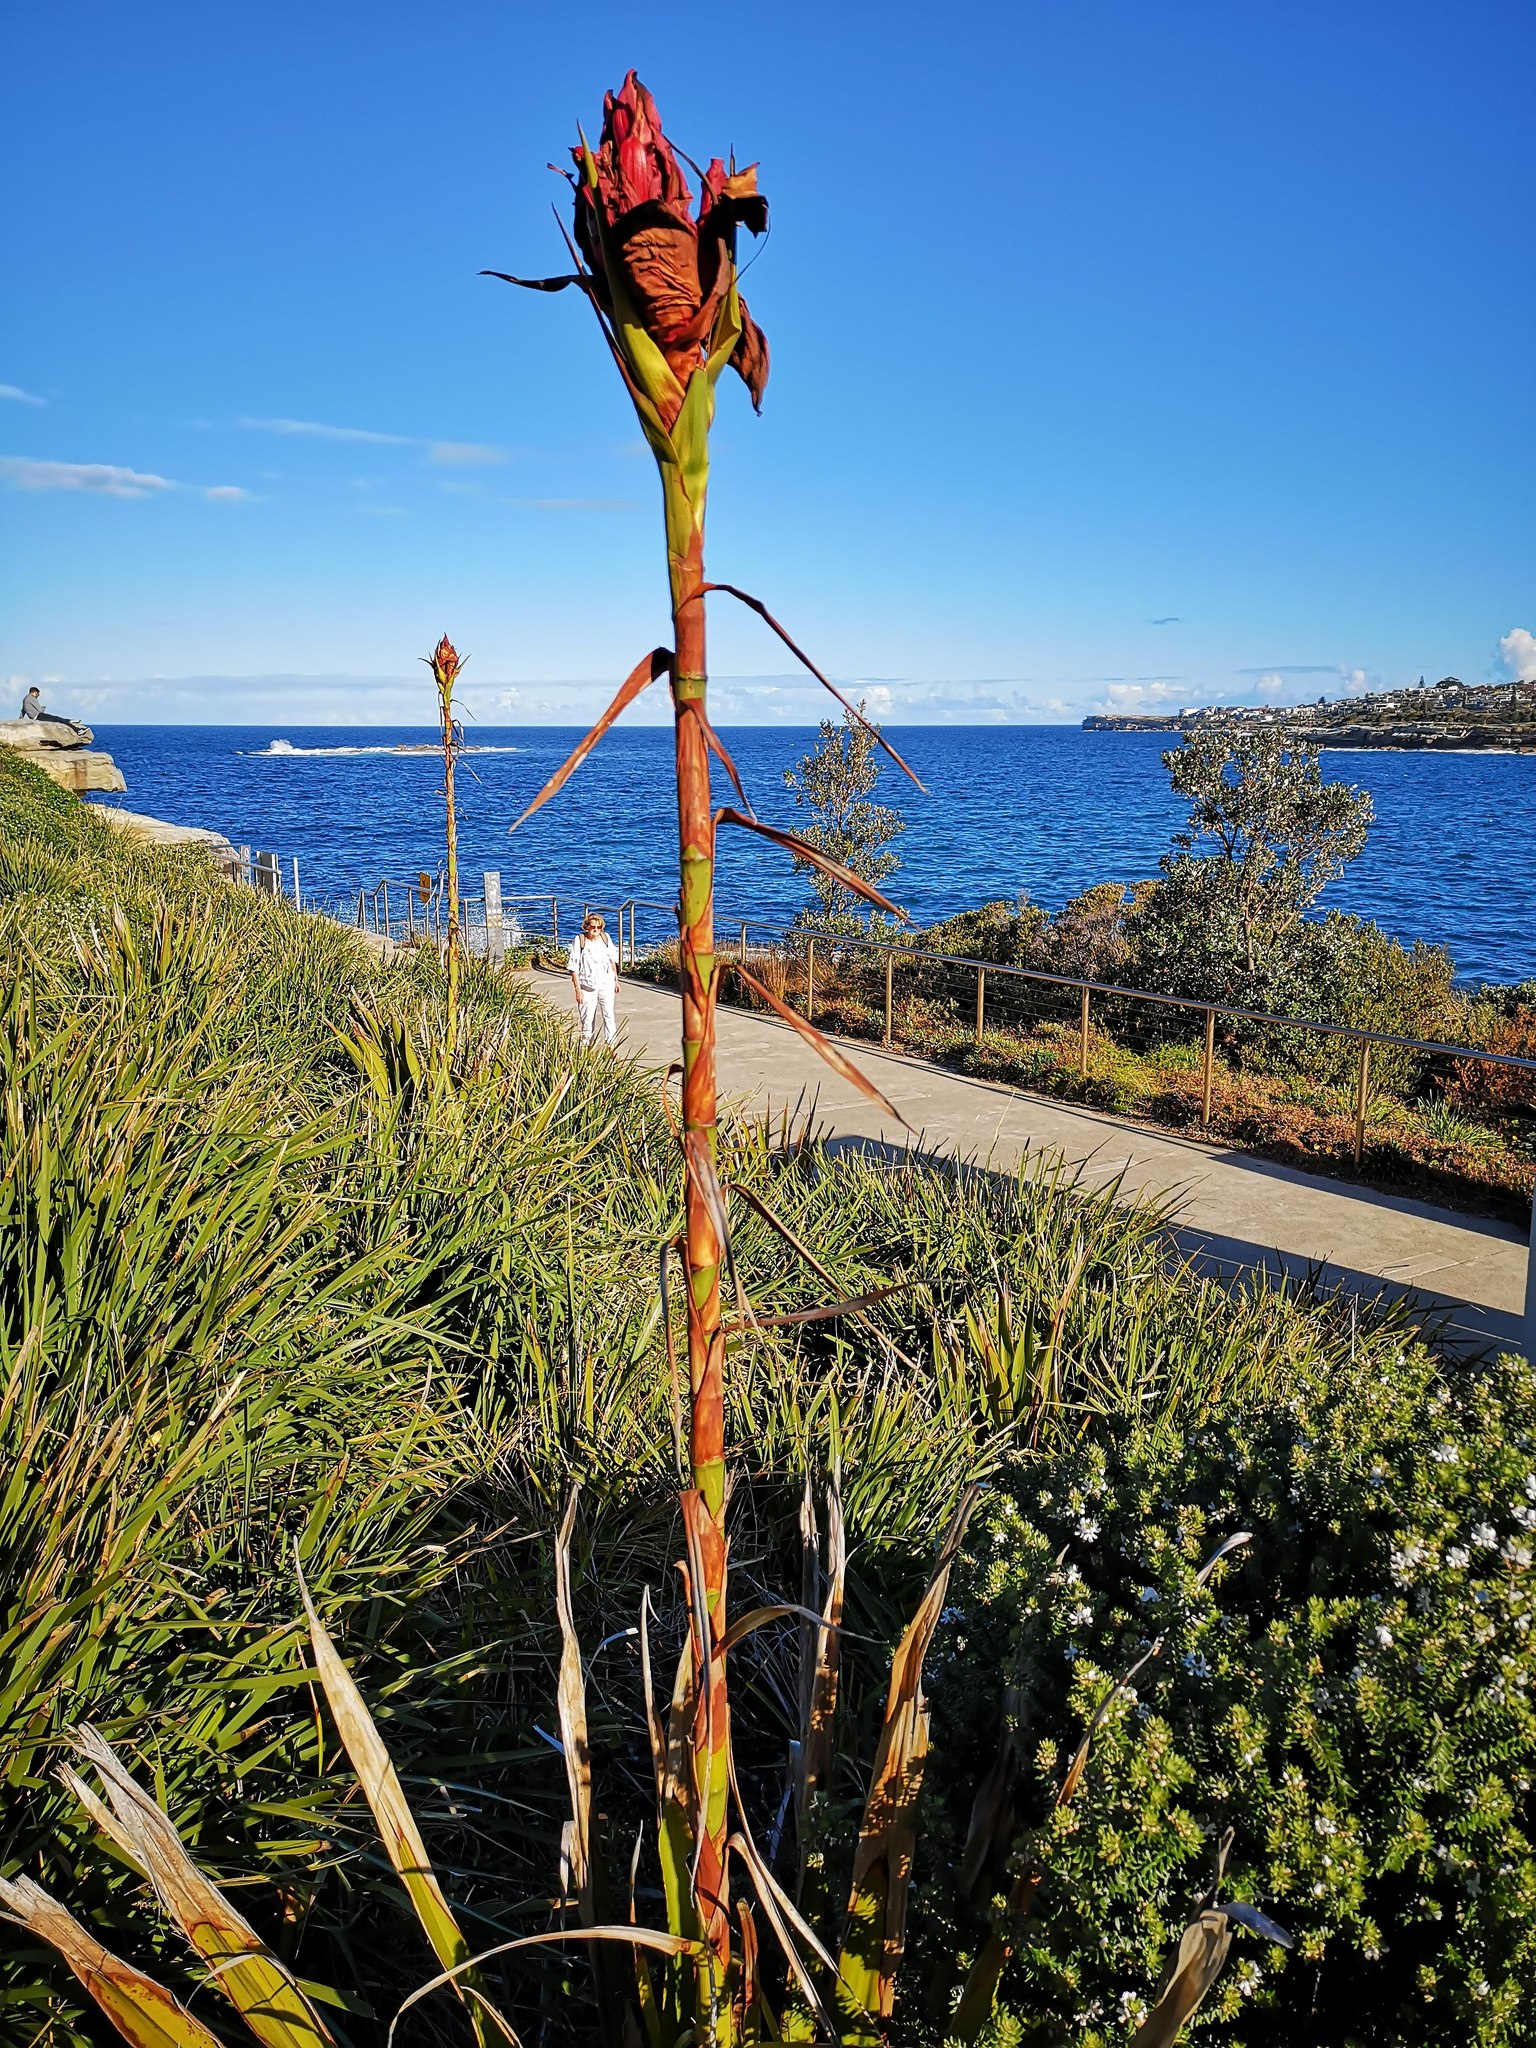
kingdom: Plantae
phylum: Tracheophyta
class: Liliopsida
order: Asparagales
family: Doryanthaceae
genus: Doryanthes
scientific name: Doryanthes excelsa
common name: Giant-lily
